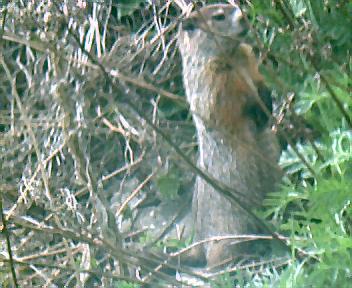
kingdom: Animalia
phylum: Chordata
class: Mammalia
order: Rodentia
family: Sciuridae
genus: Marmota
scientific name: Marmota monax
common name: Groundhog
